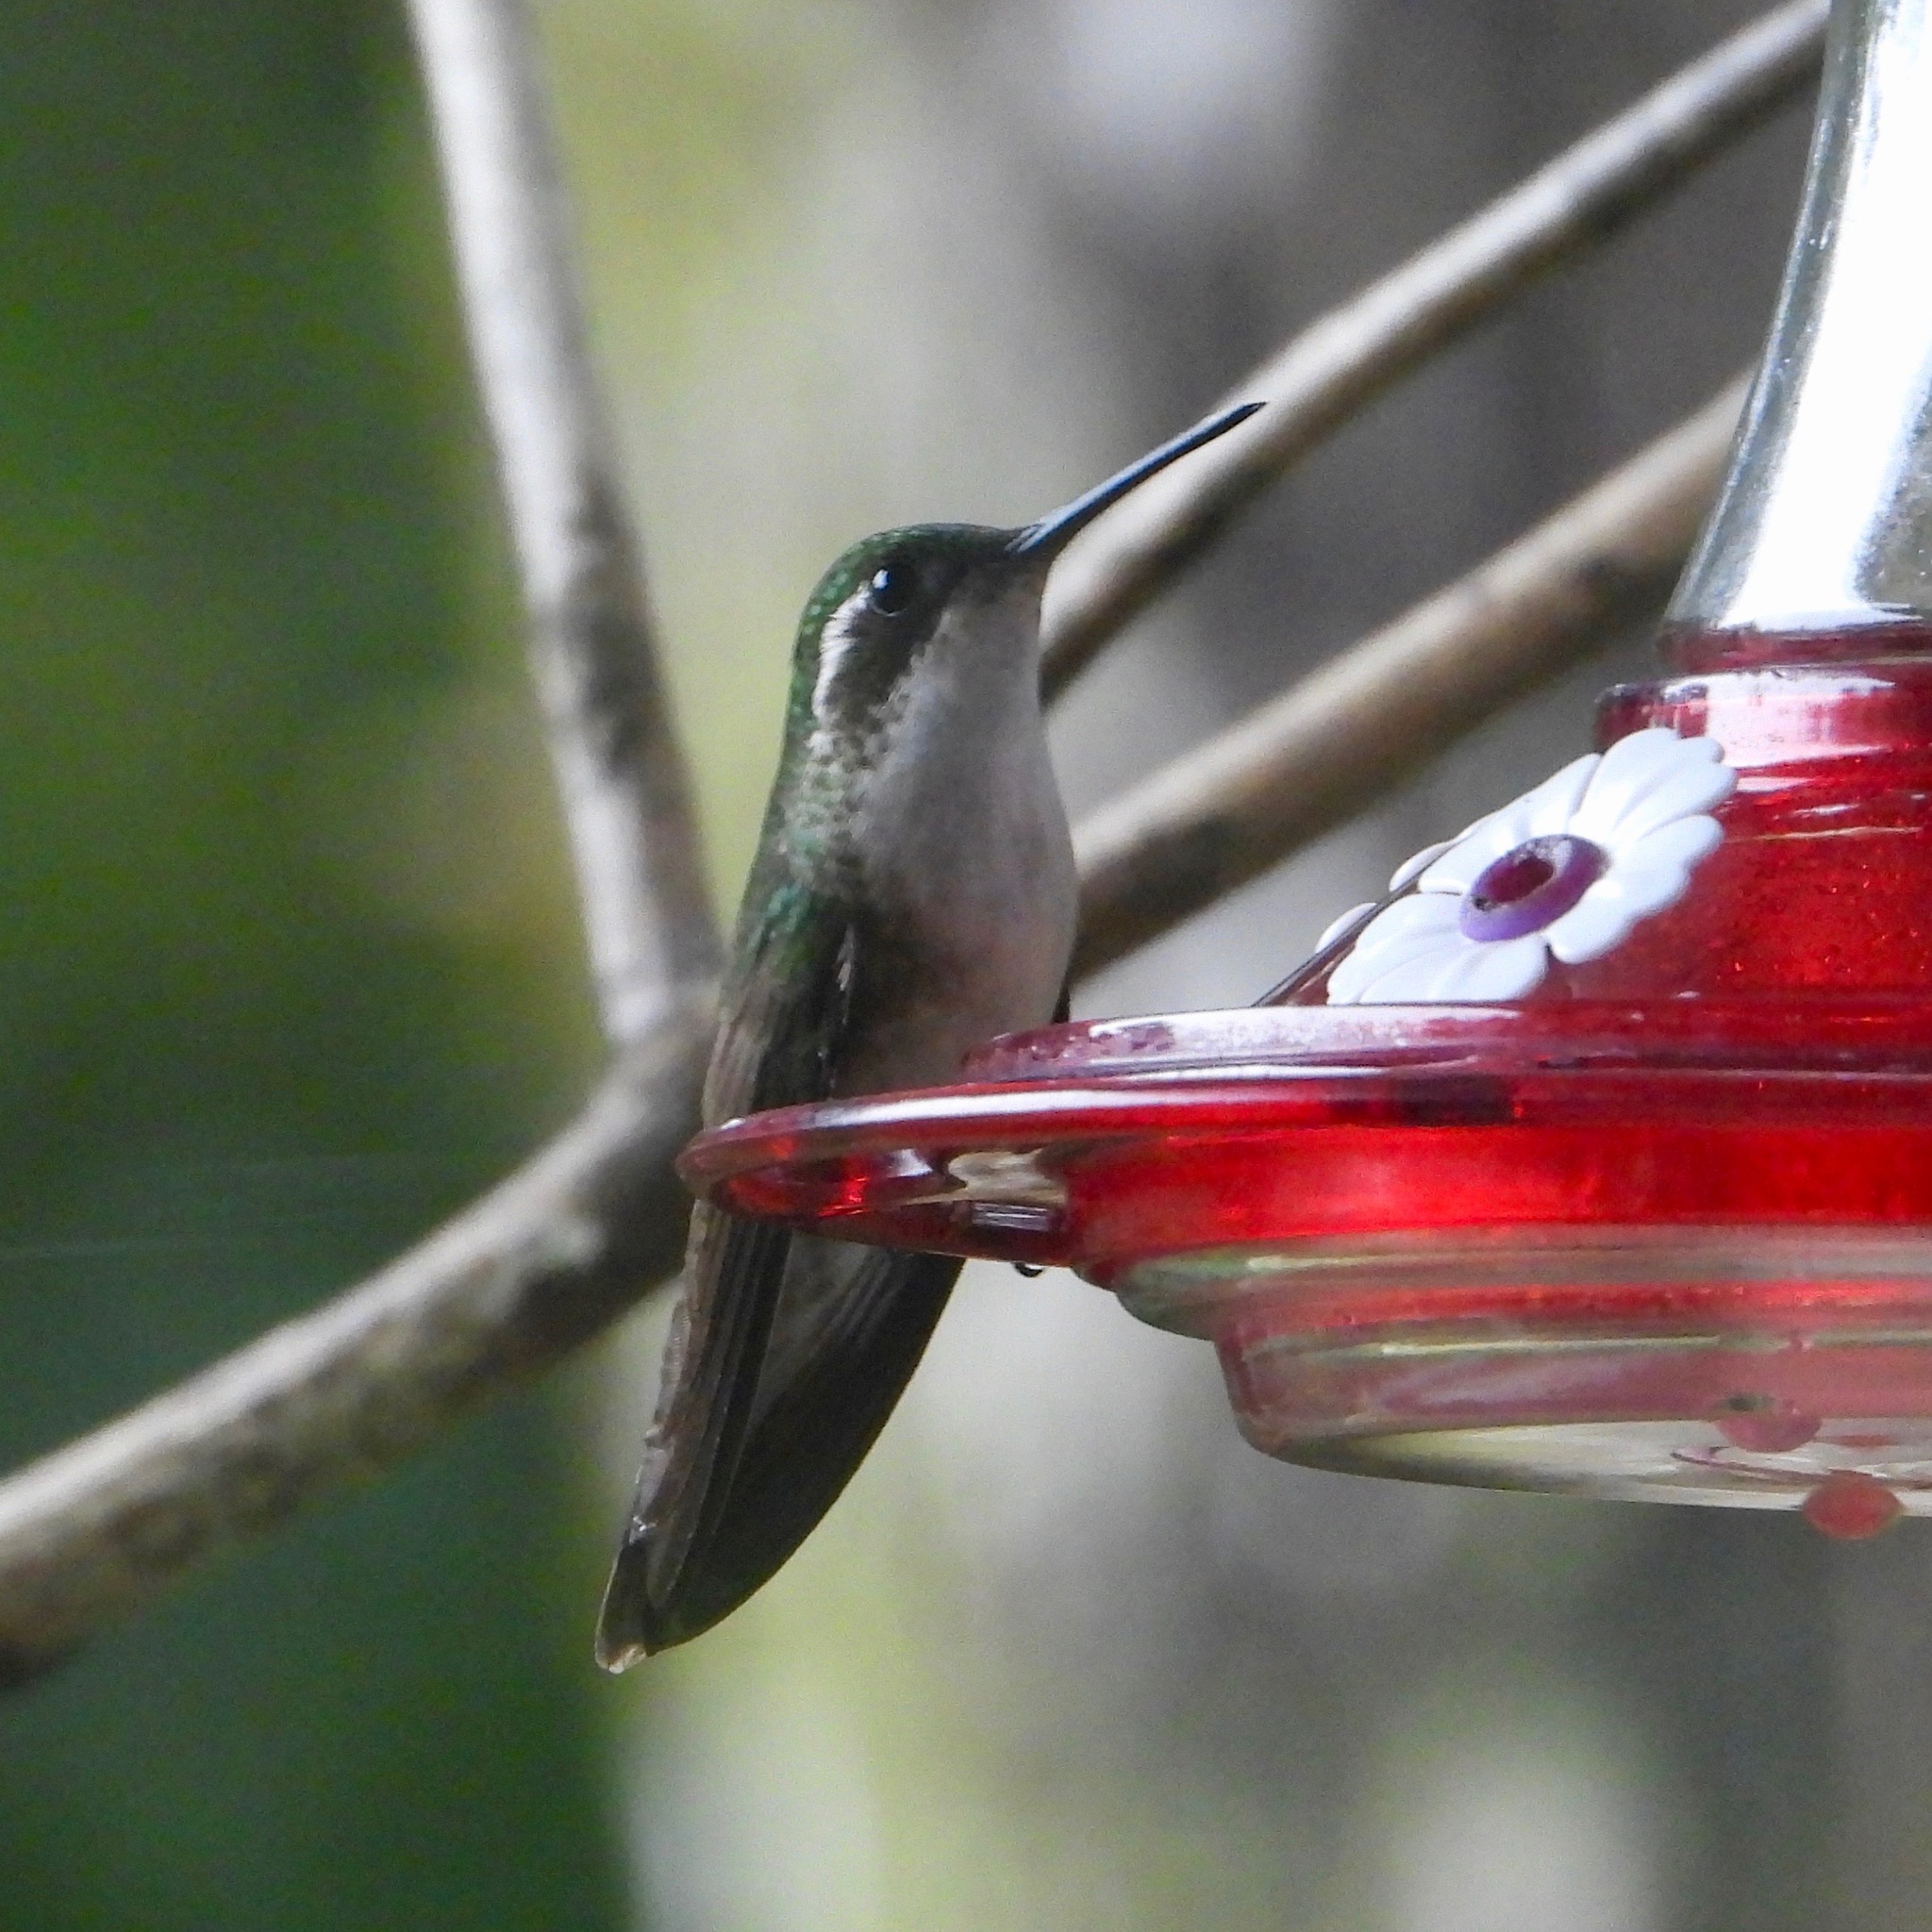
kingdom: Animalia
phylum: Chordata
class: Aves
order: Apodiformes
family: Trochilidae
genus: Lampornis
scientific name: Lampornis viridipallens
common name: Green-throated mountain-gem
